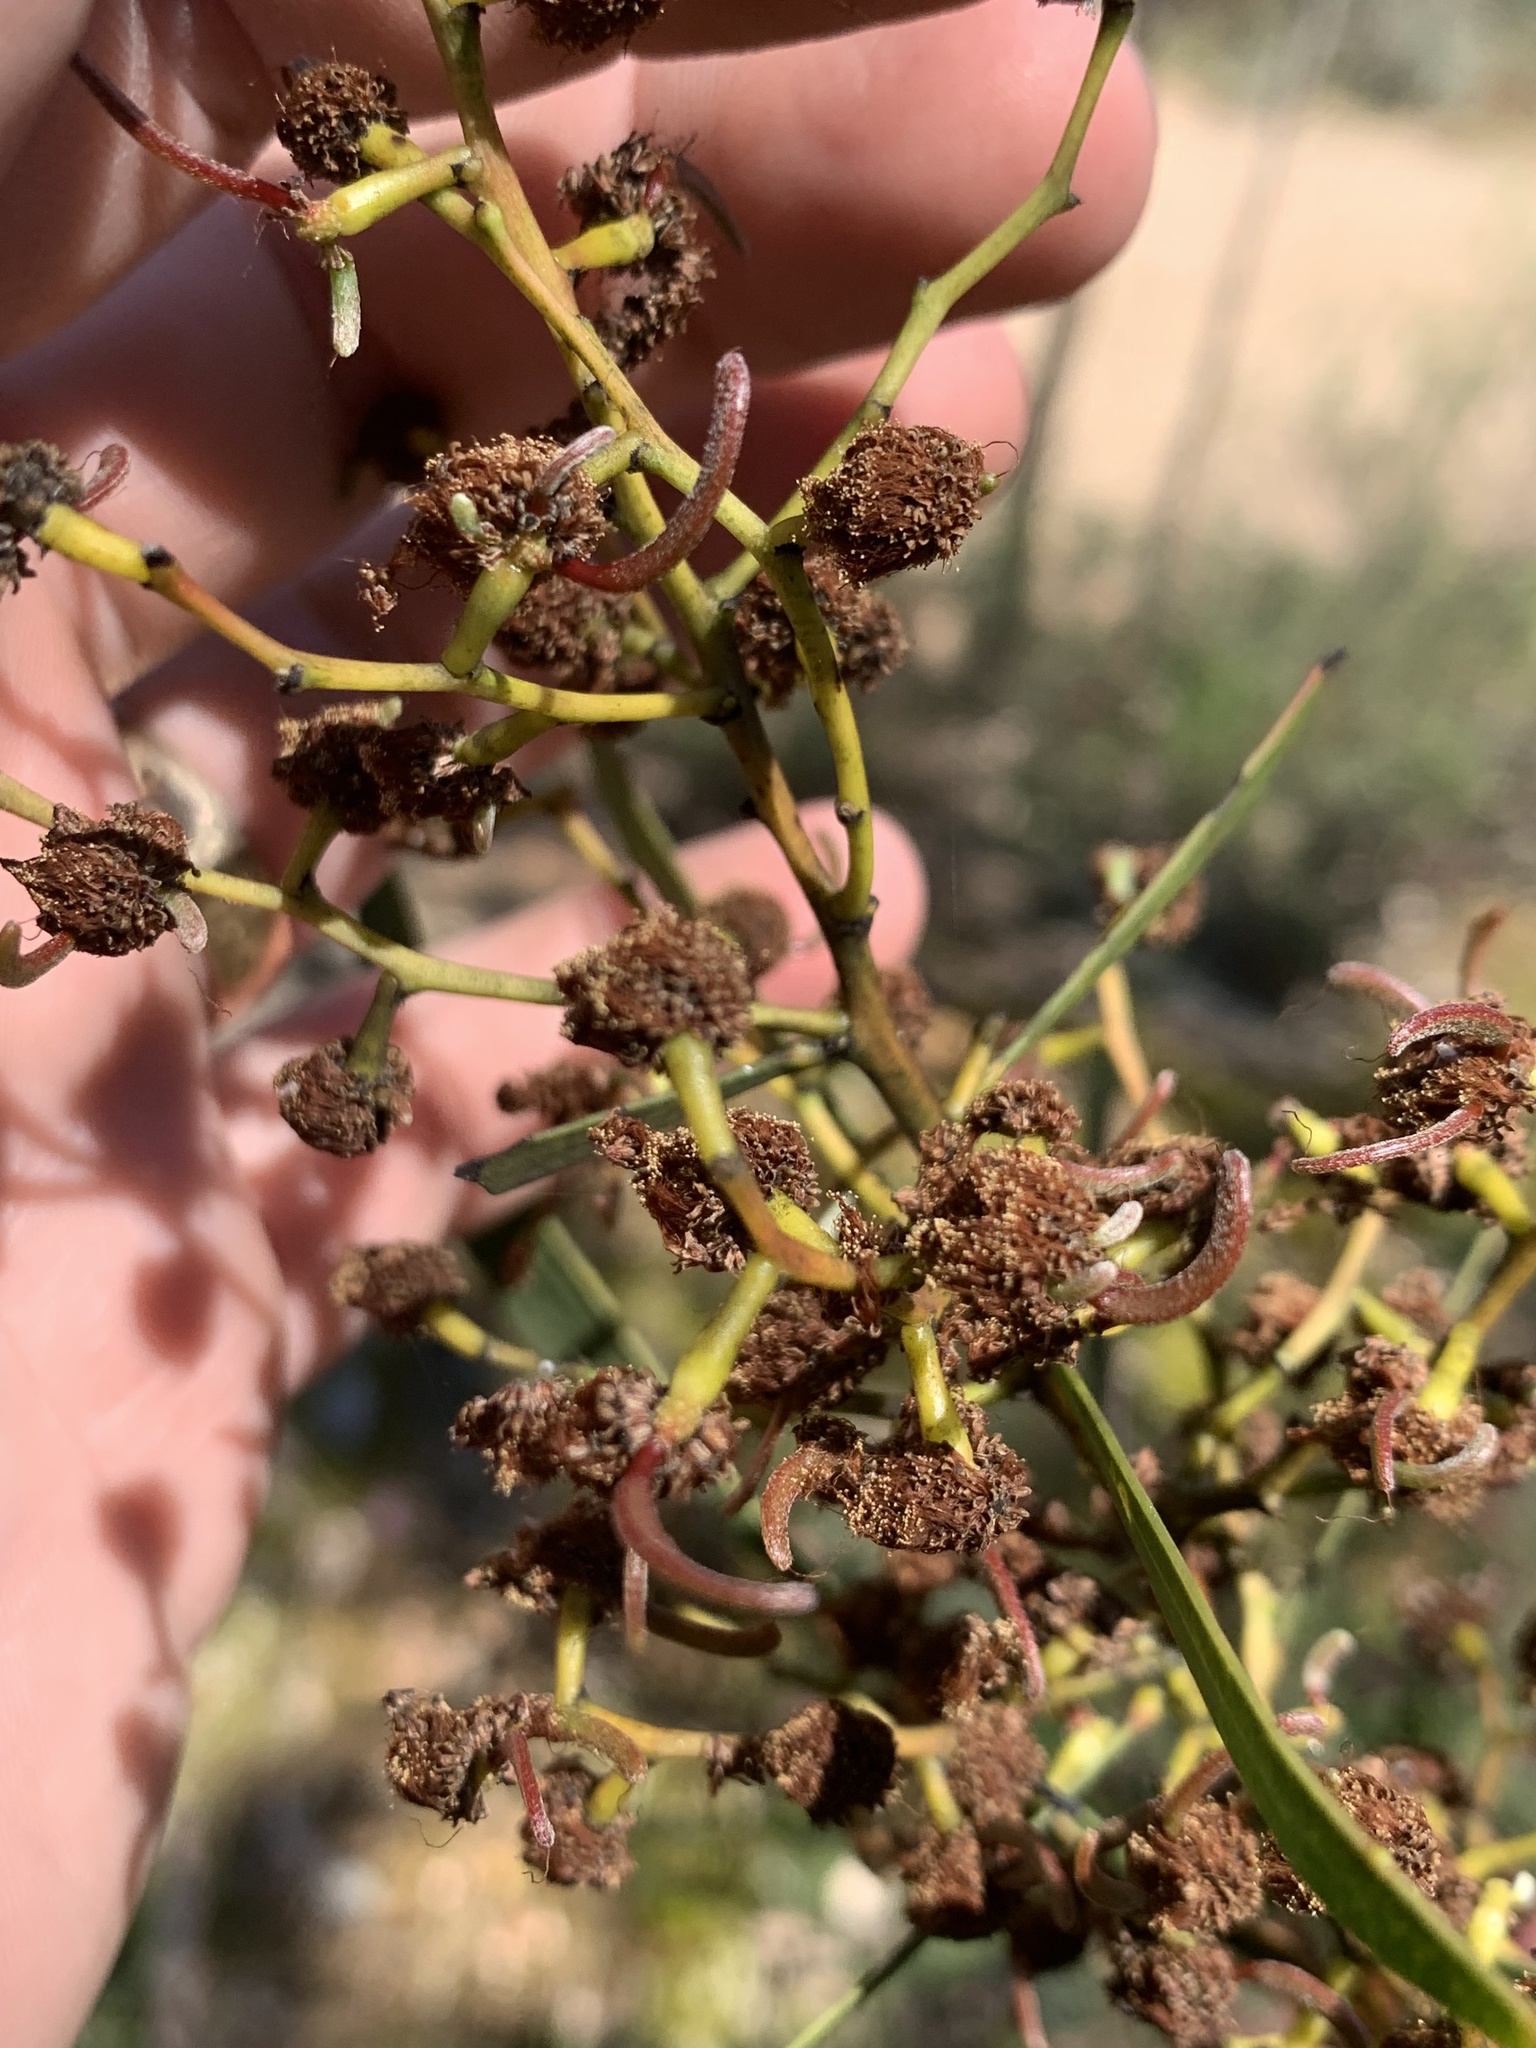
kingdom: Plantae
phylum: Tracheophyta
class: Magnoliopsida
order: Fabales
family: Fabaceae
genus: Acacia
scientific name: Acacia gladiiformis
